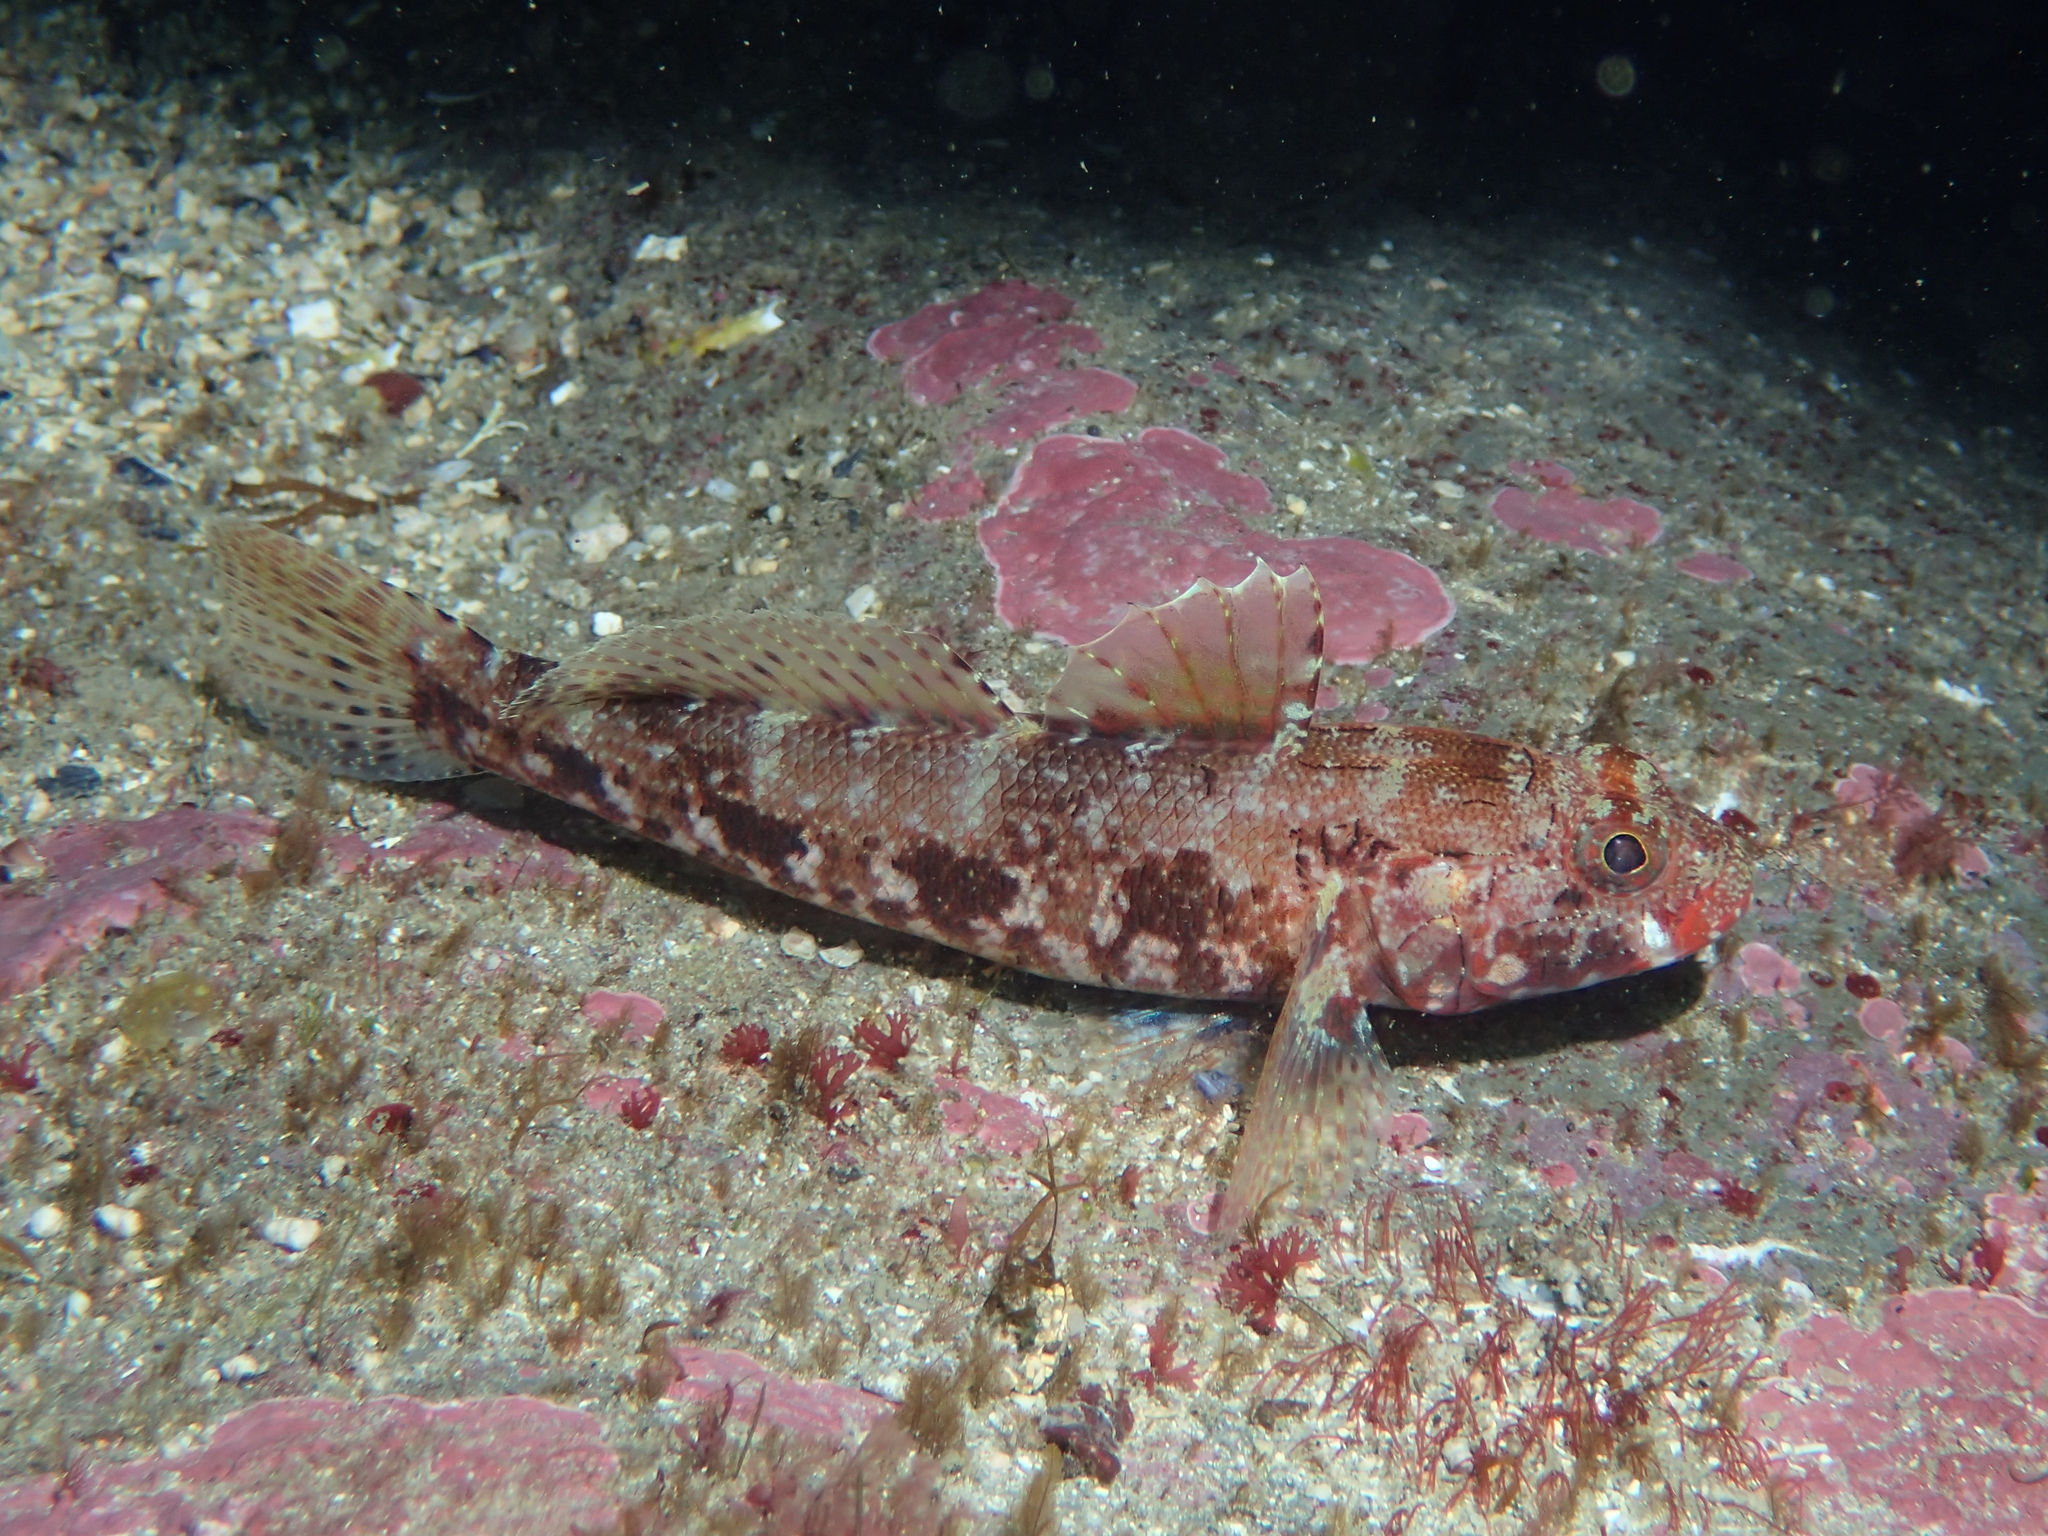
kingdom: Animalia
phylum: Chordata
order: Perciformes
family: Gobiidae
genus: Gobius
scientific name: Gobius cruentatus
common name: Red-mouthed goby
